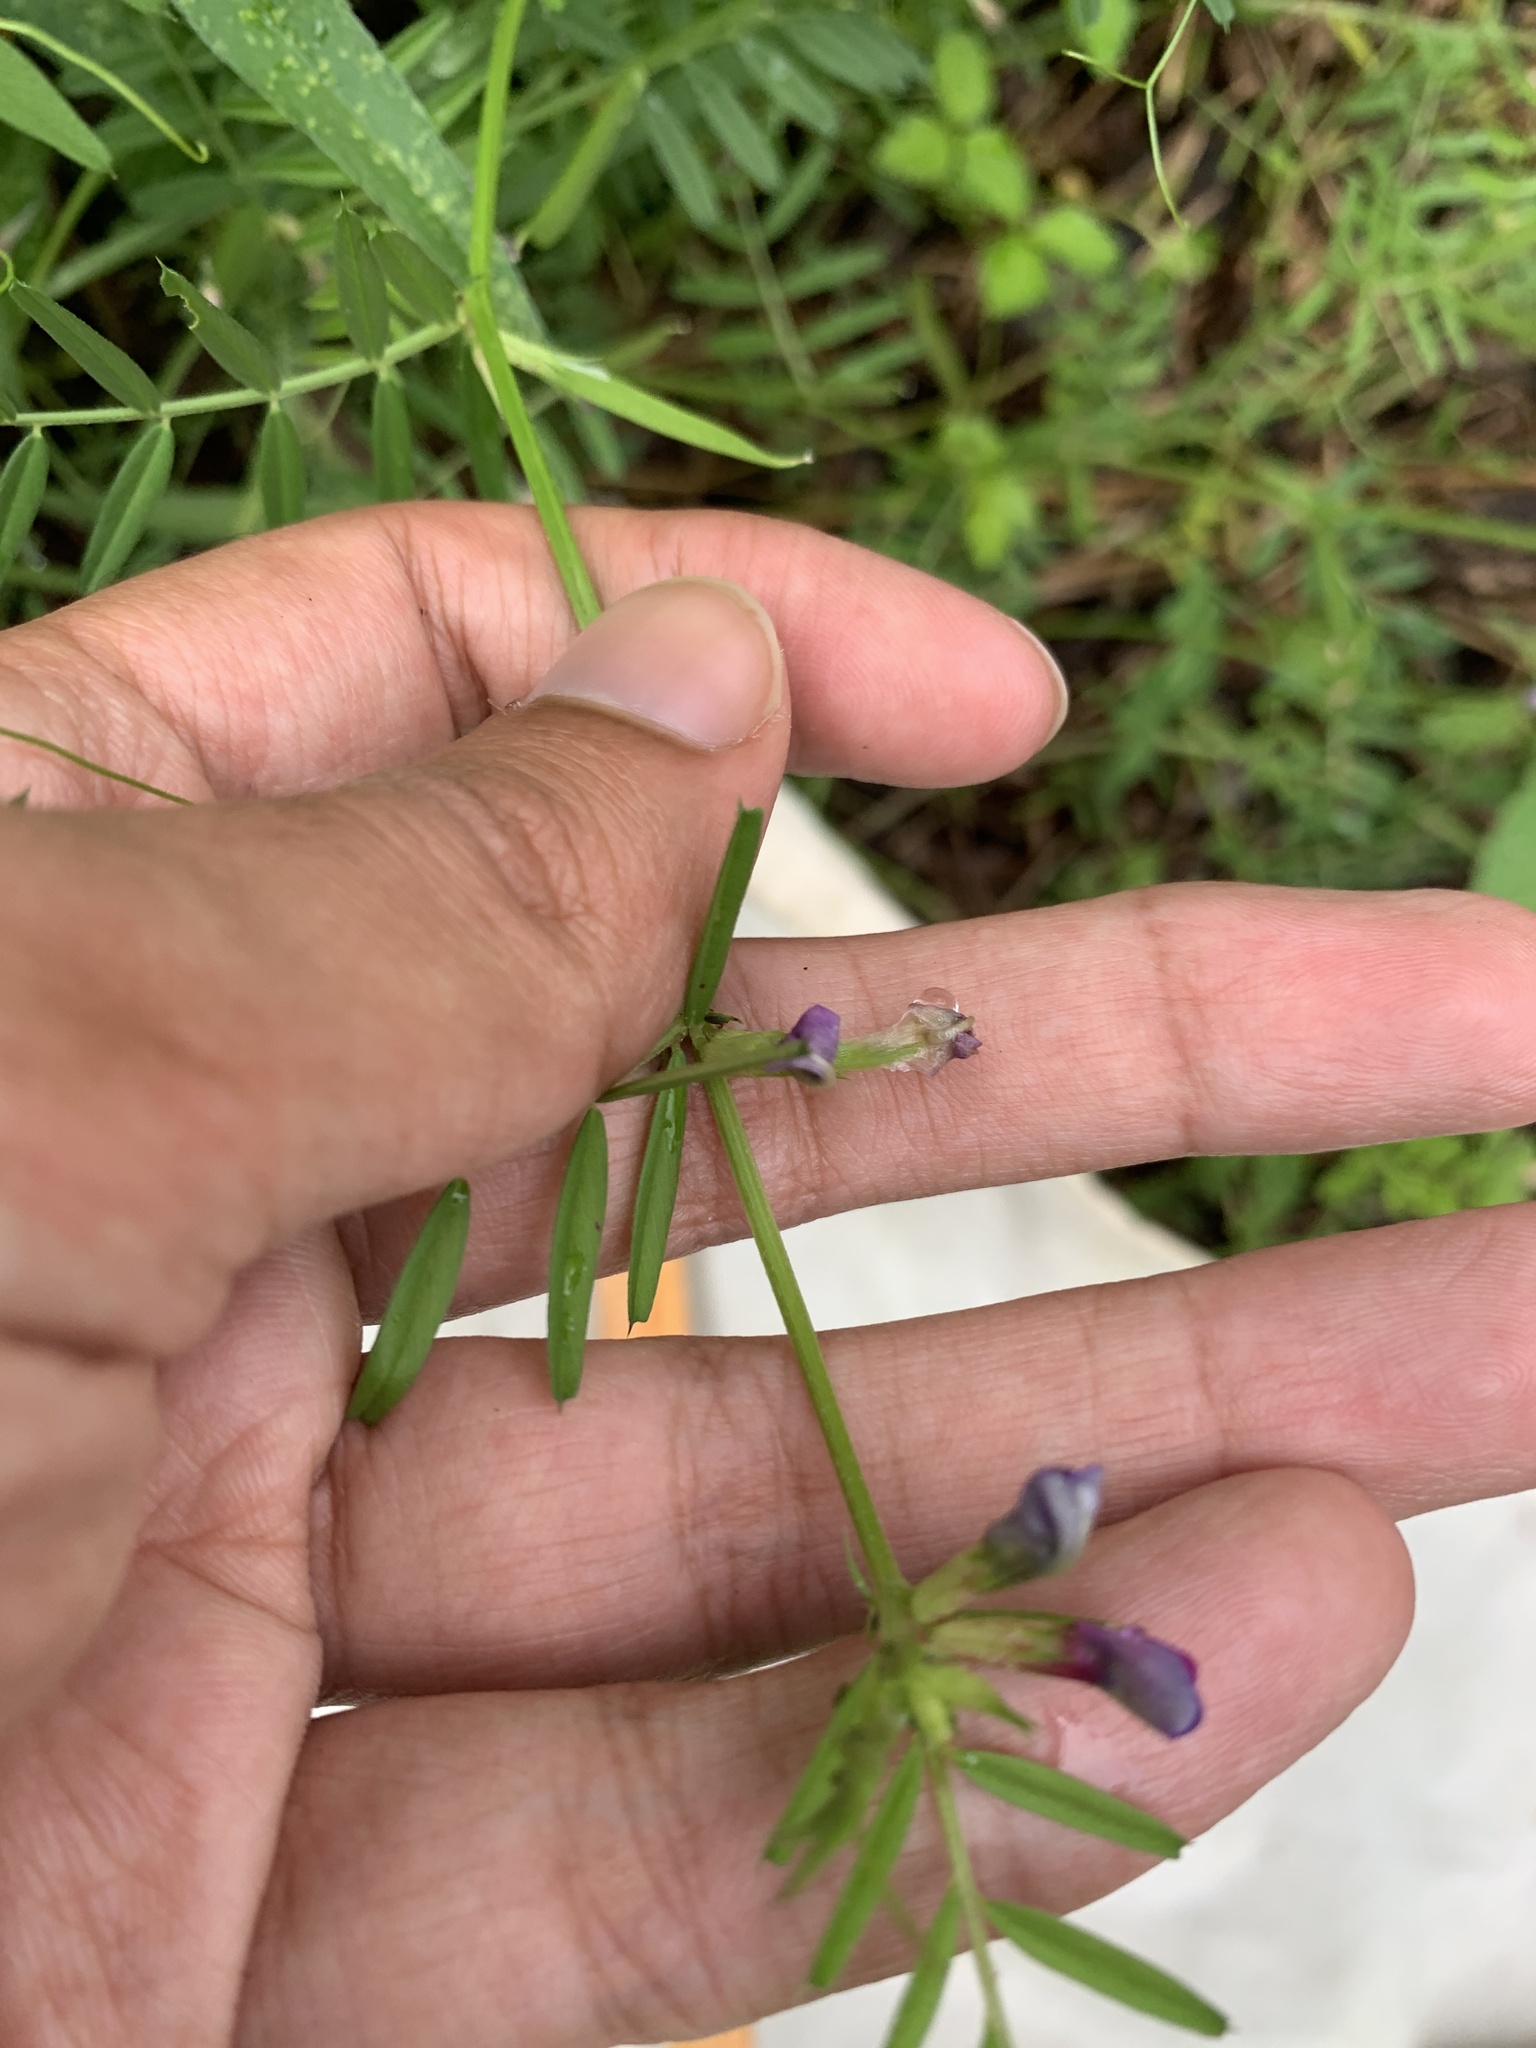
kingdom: Plantae
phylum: Tracheophyta
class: Magnoliopsida
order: Fabales
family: Fabaceae
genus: Vicia
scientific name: Vicia sativa
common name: Garden vetch
